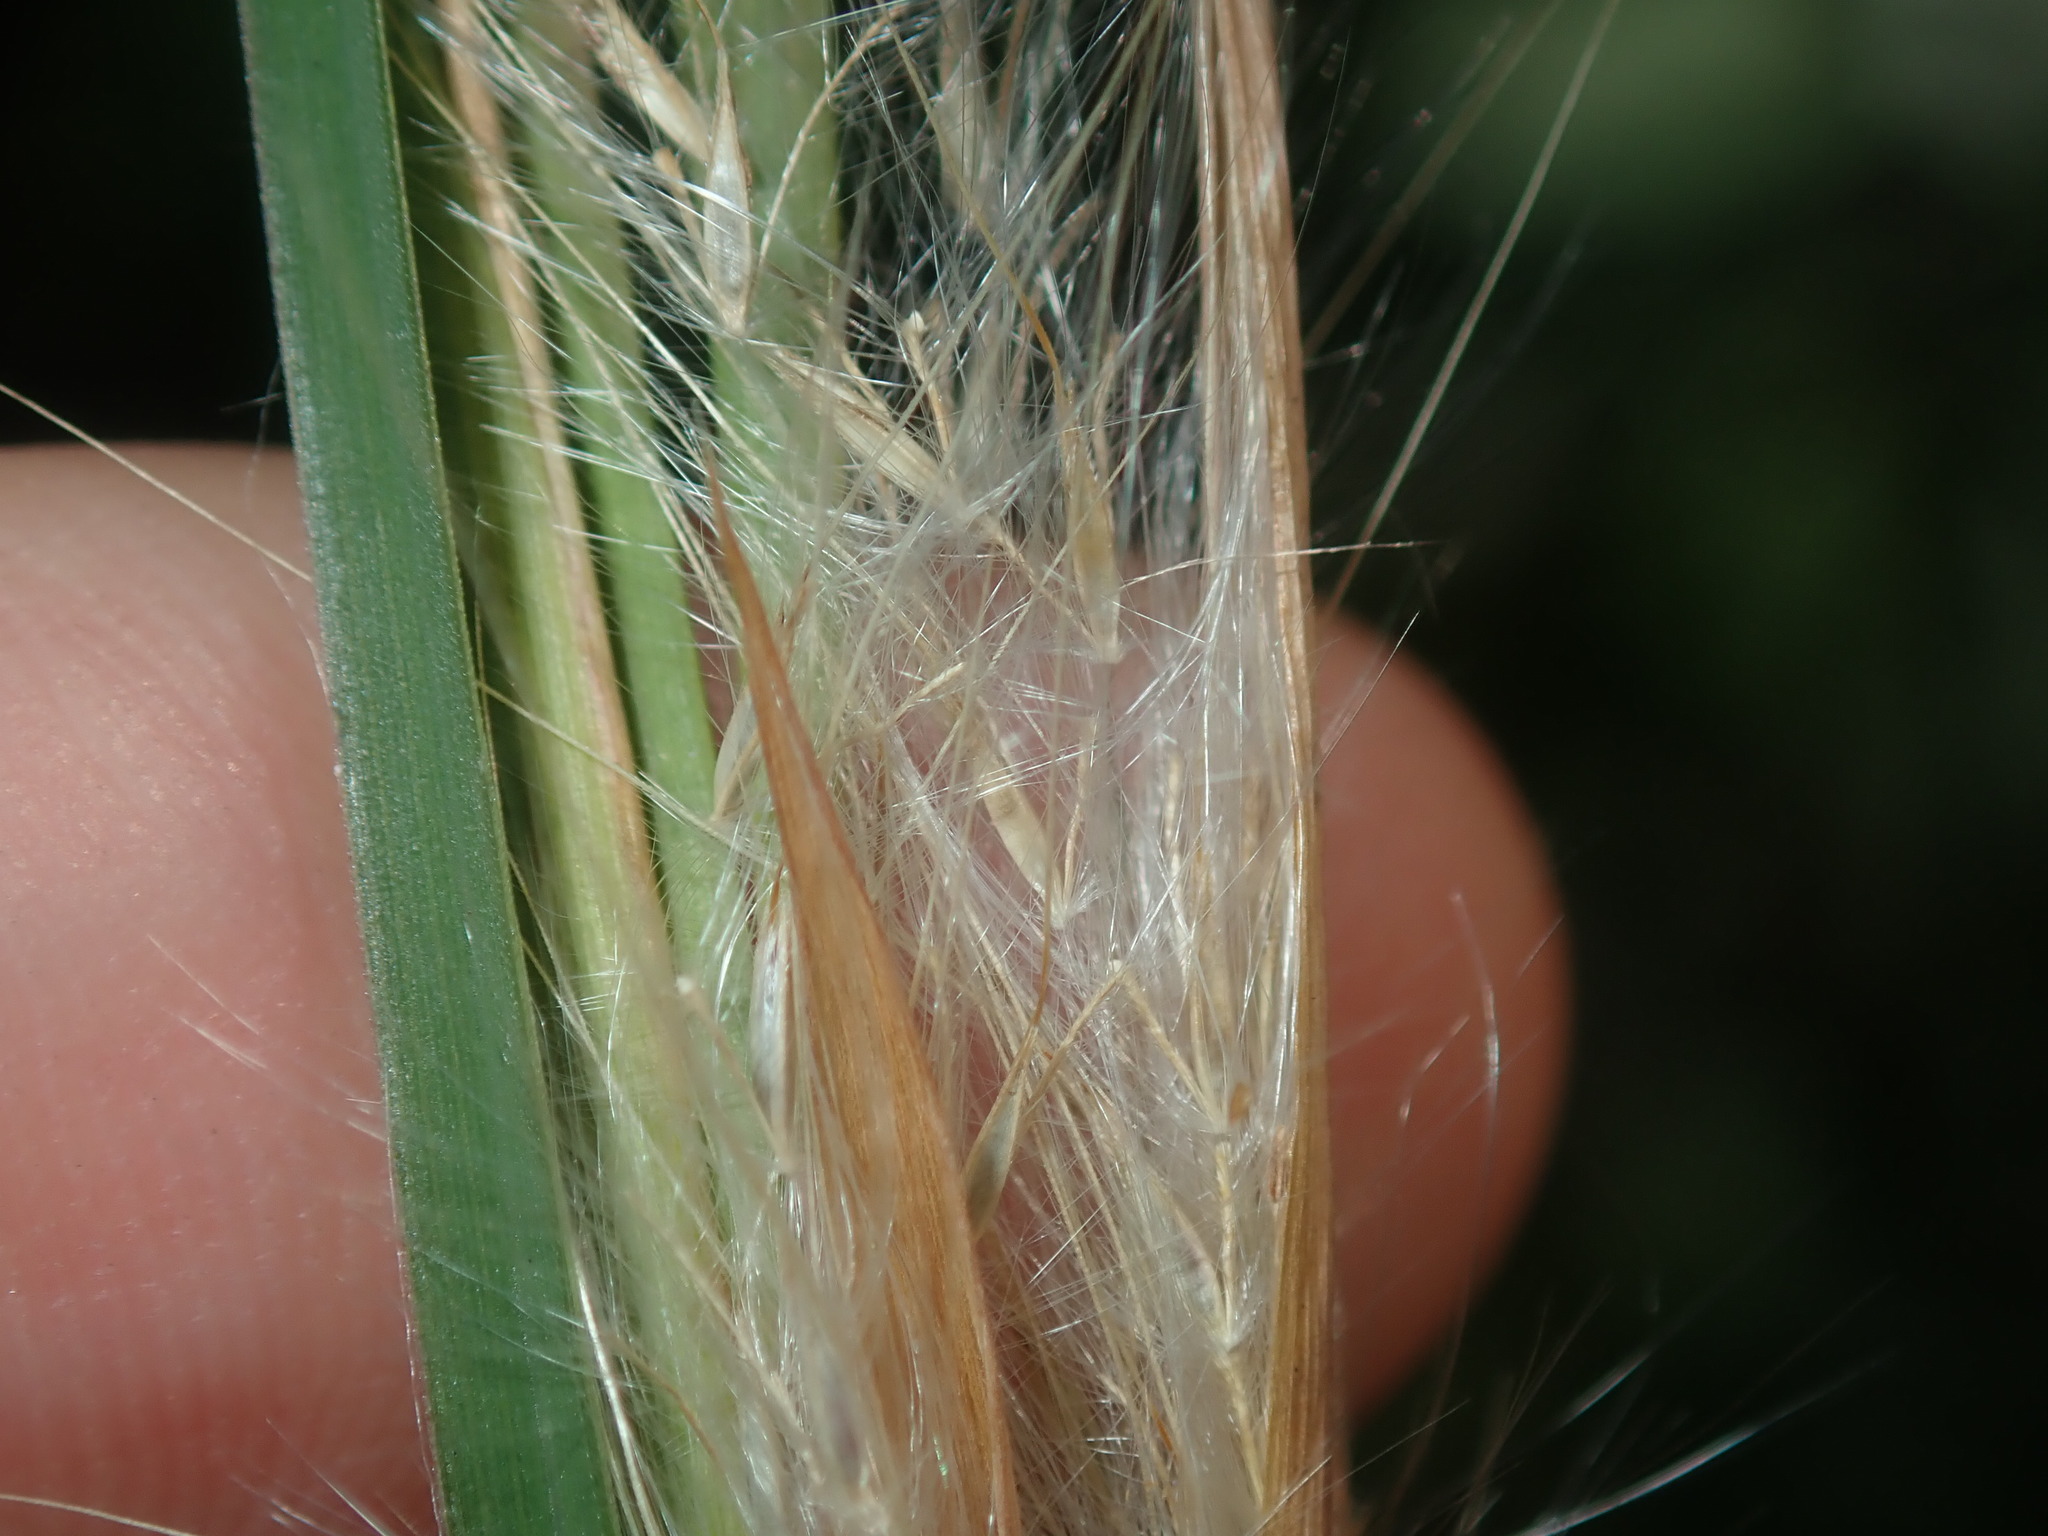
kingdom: Plantae
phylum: Tracheophyta
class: Liliopsida
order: Poales
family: Poaceae
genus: Andropogon
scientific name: Andropogon virginicus
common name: Broomsedge bluestem
